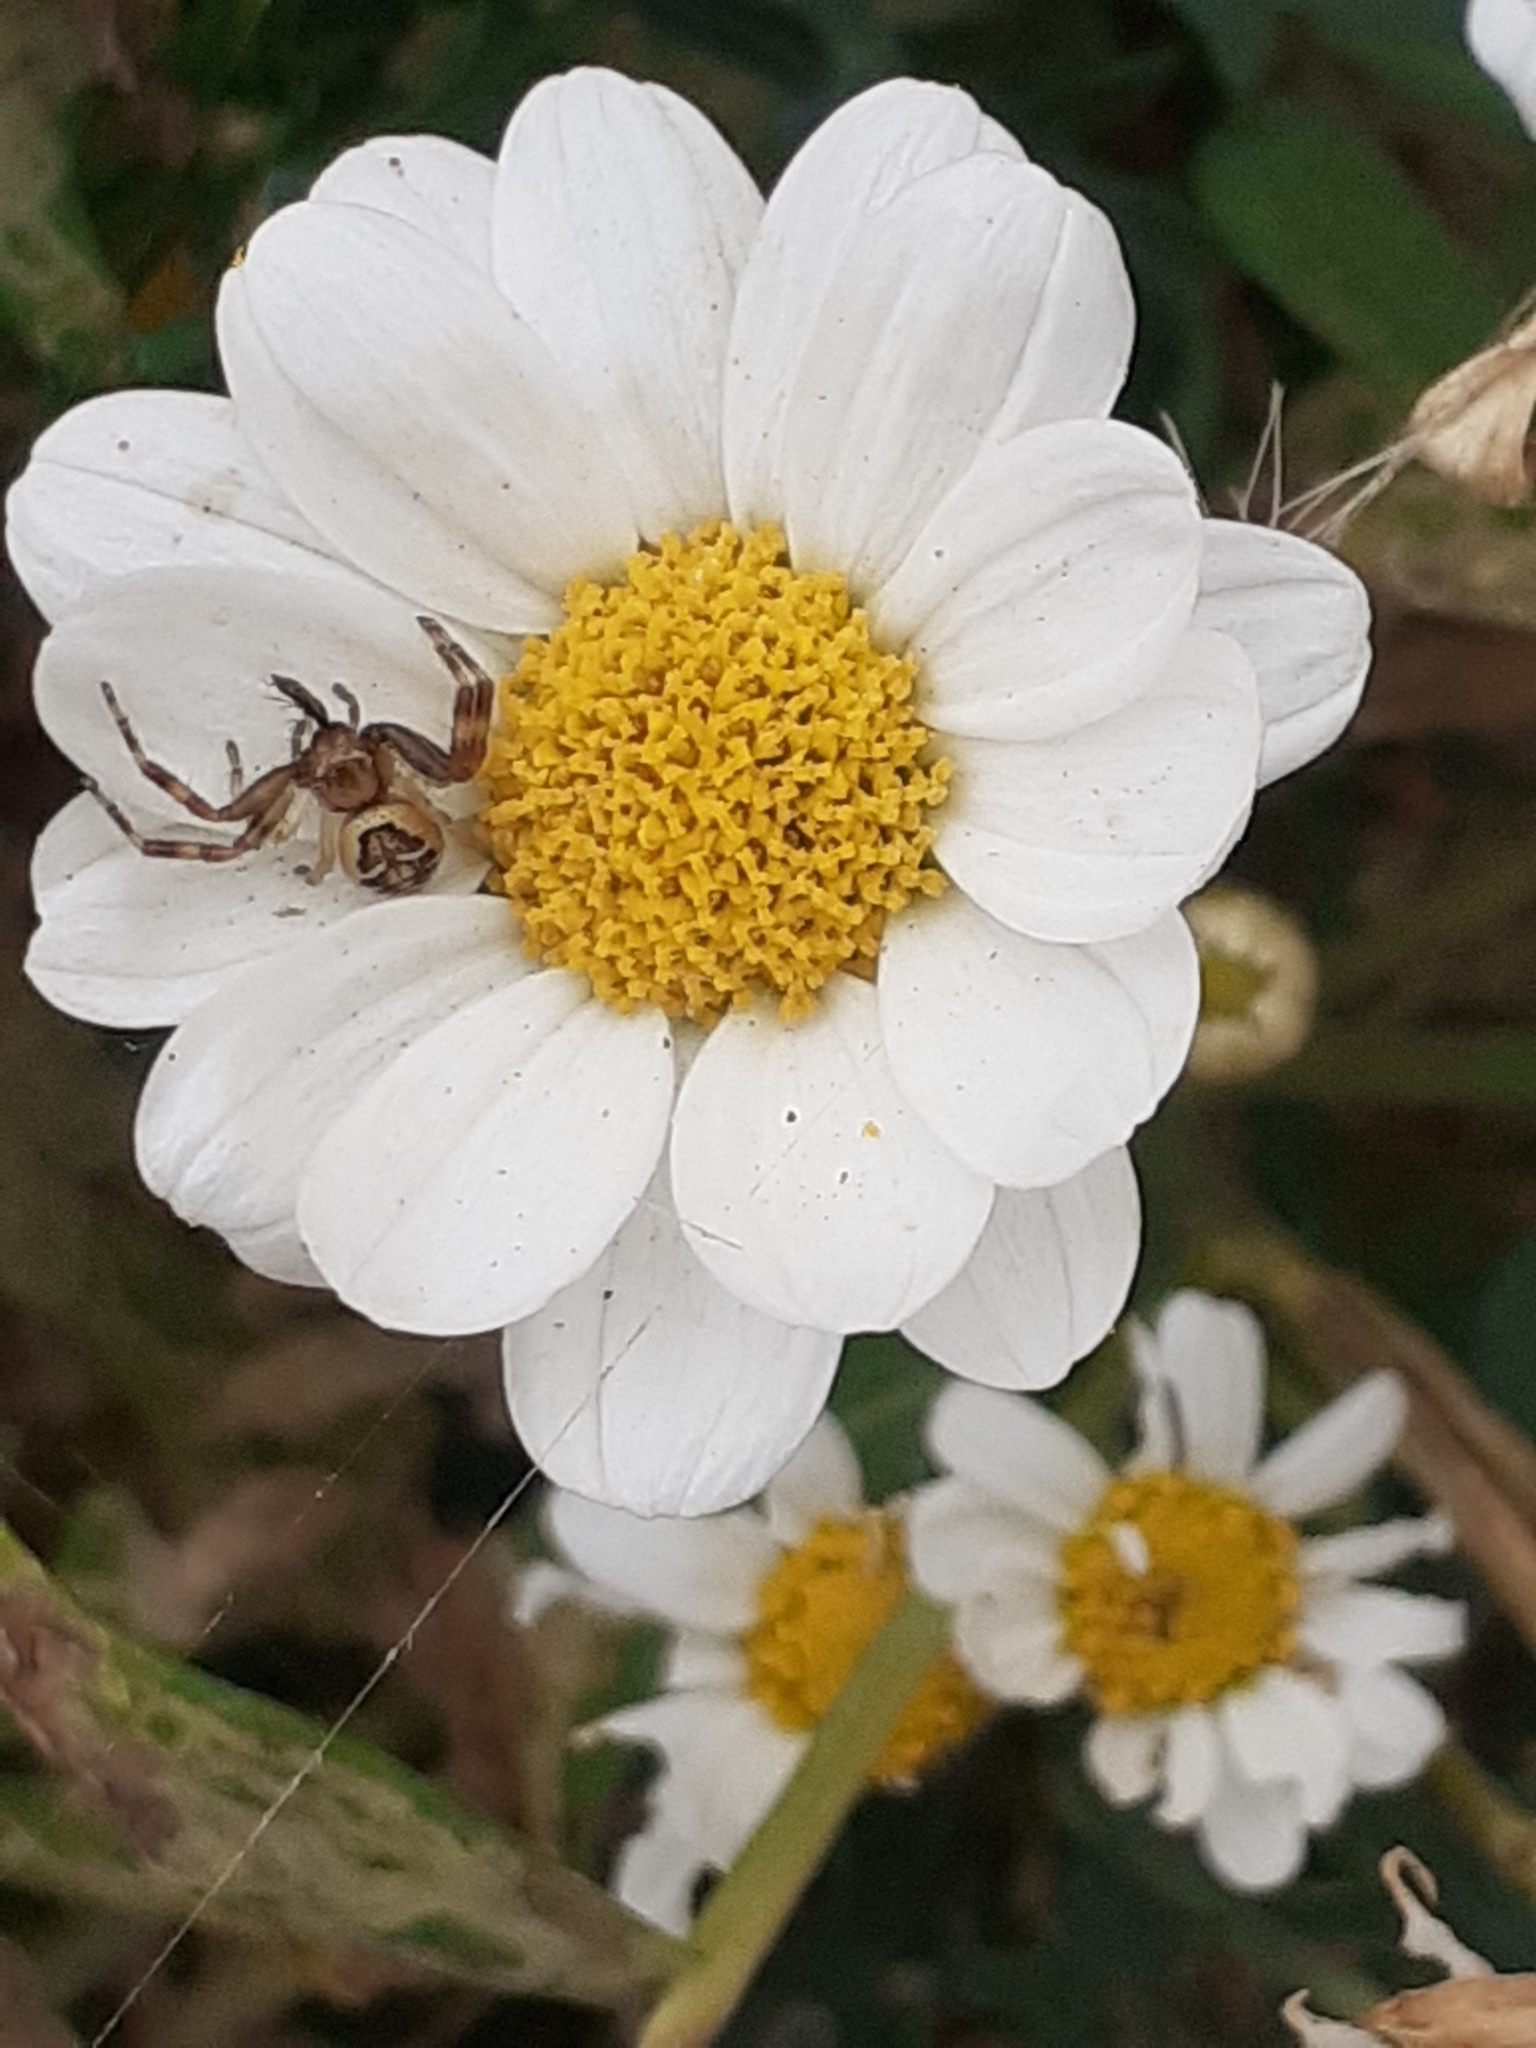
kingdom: Animalia
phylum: Arthropoda
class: Arachnida
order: Araneae
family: Thomisidae
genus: Synema
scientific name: Synema globosum
